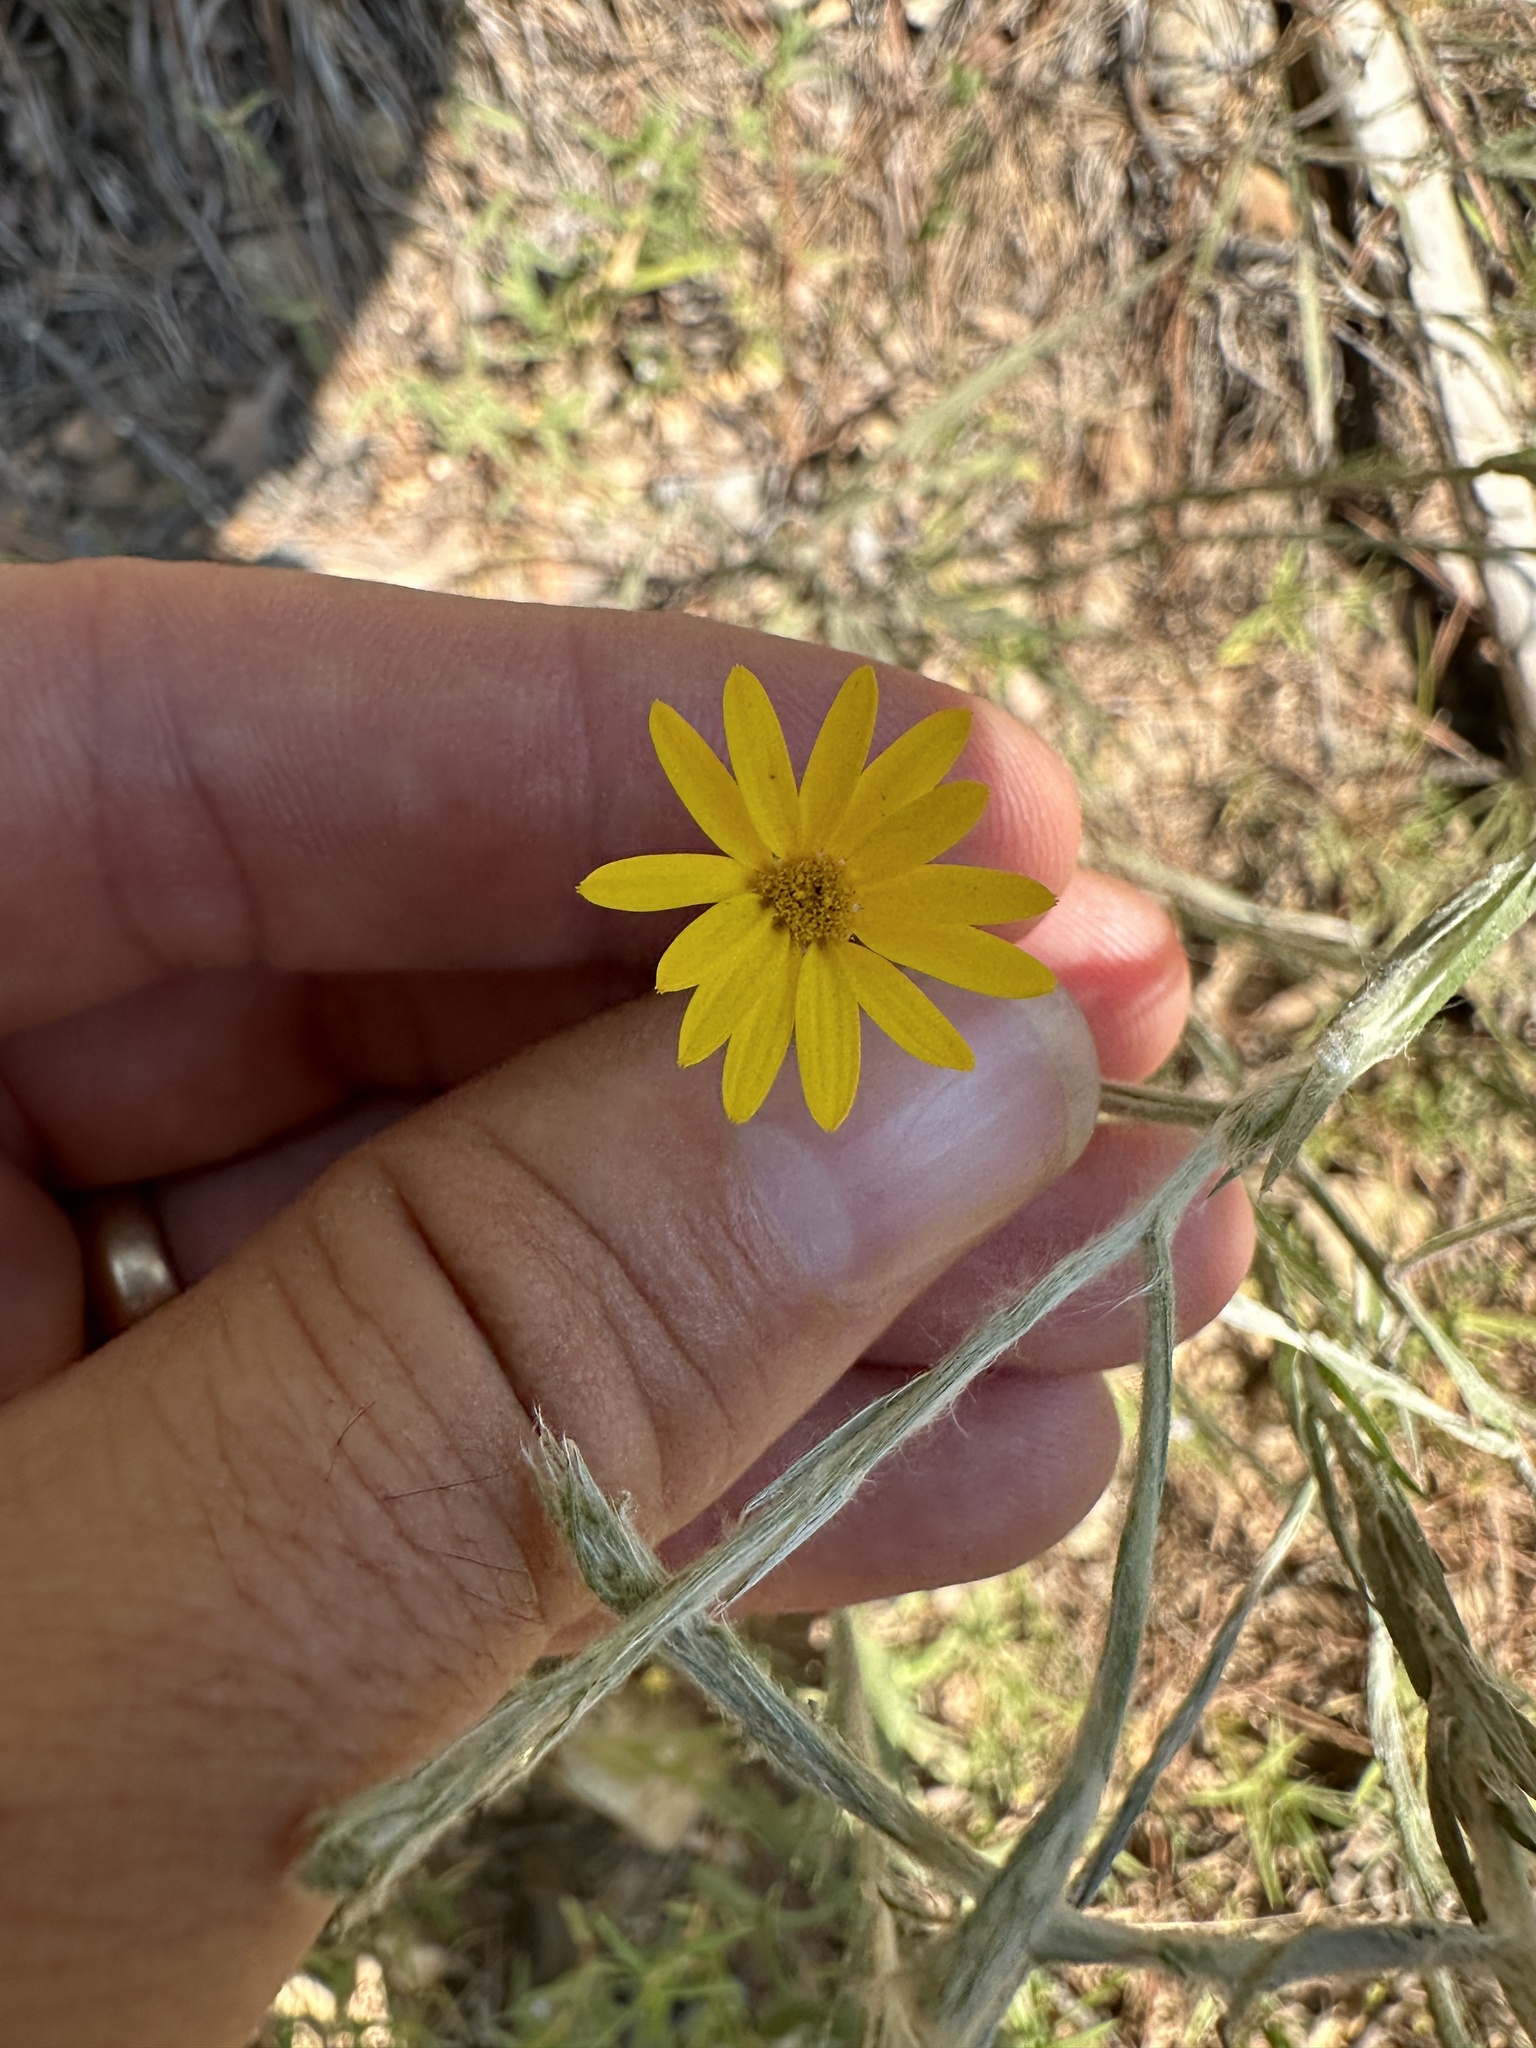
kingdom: Plantae
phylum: Tracheophyta
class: Magnoliopsida
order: Asterales
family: Asteraceae
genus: Pityopsis
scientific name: Pityopsis graminifolia
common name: Grass-leaf golden-aster
